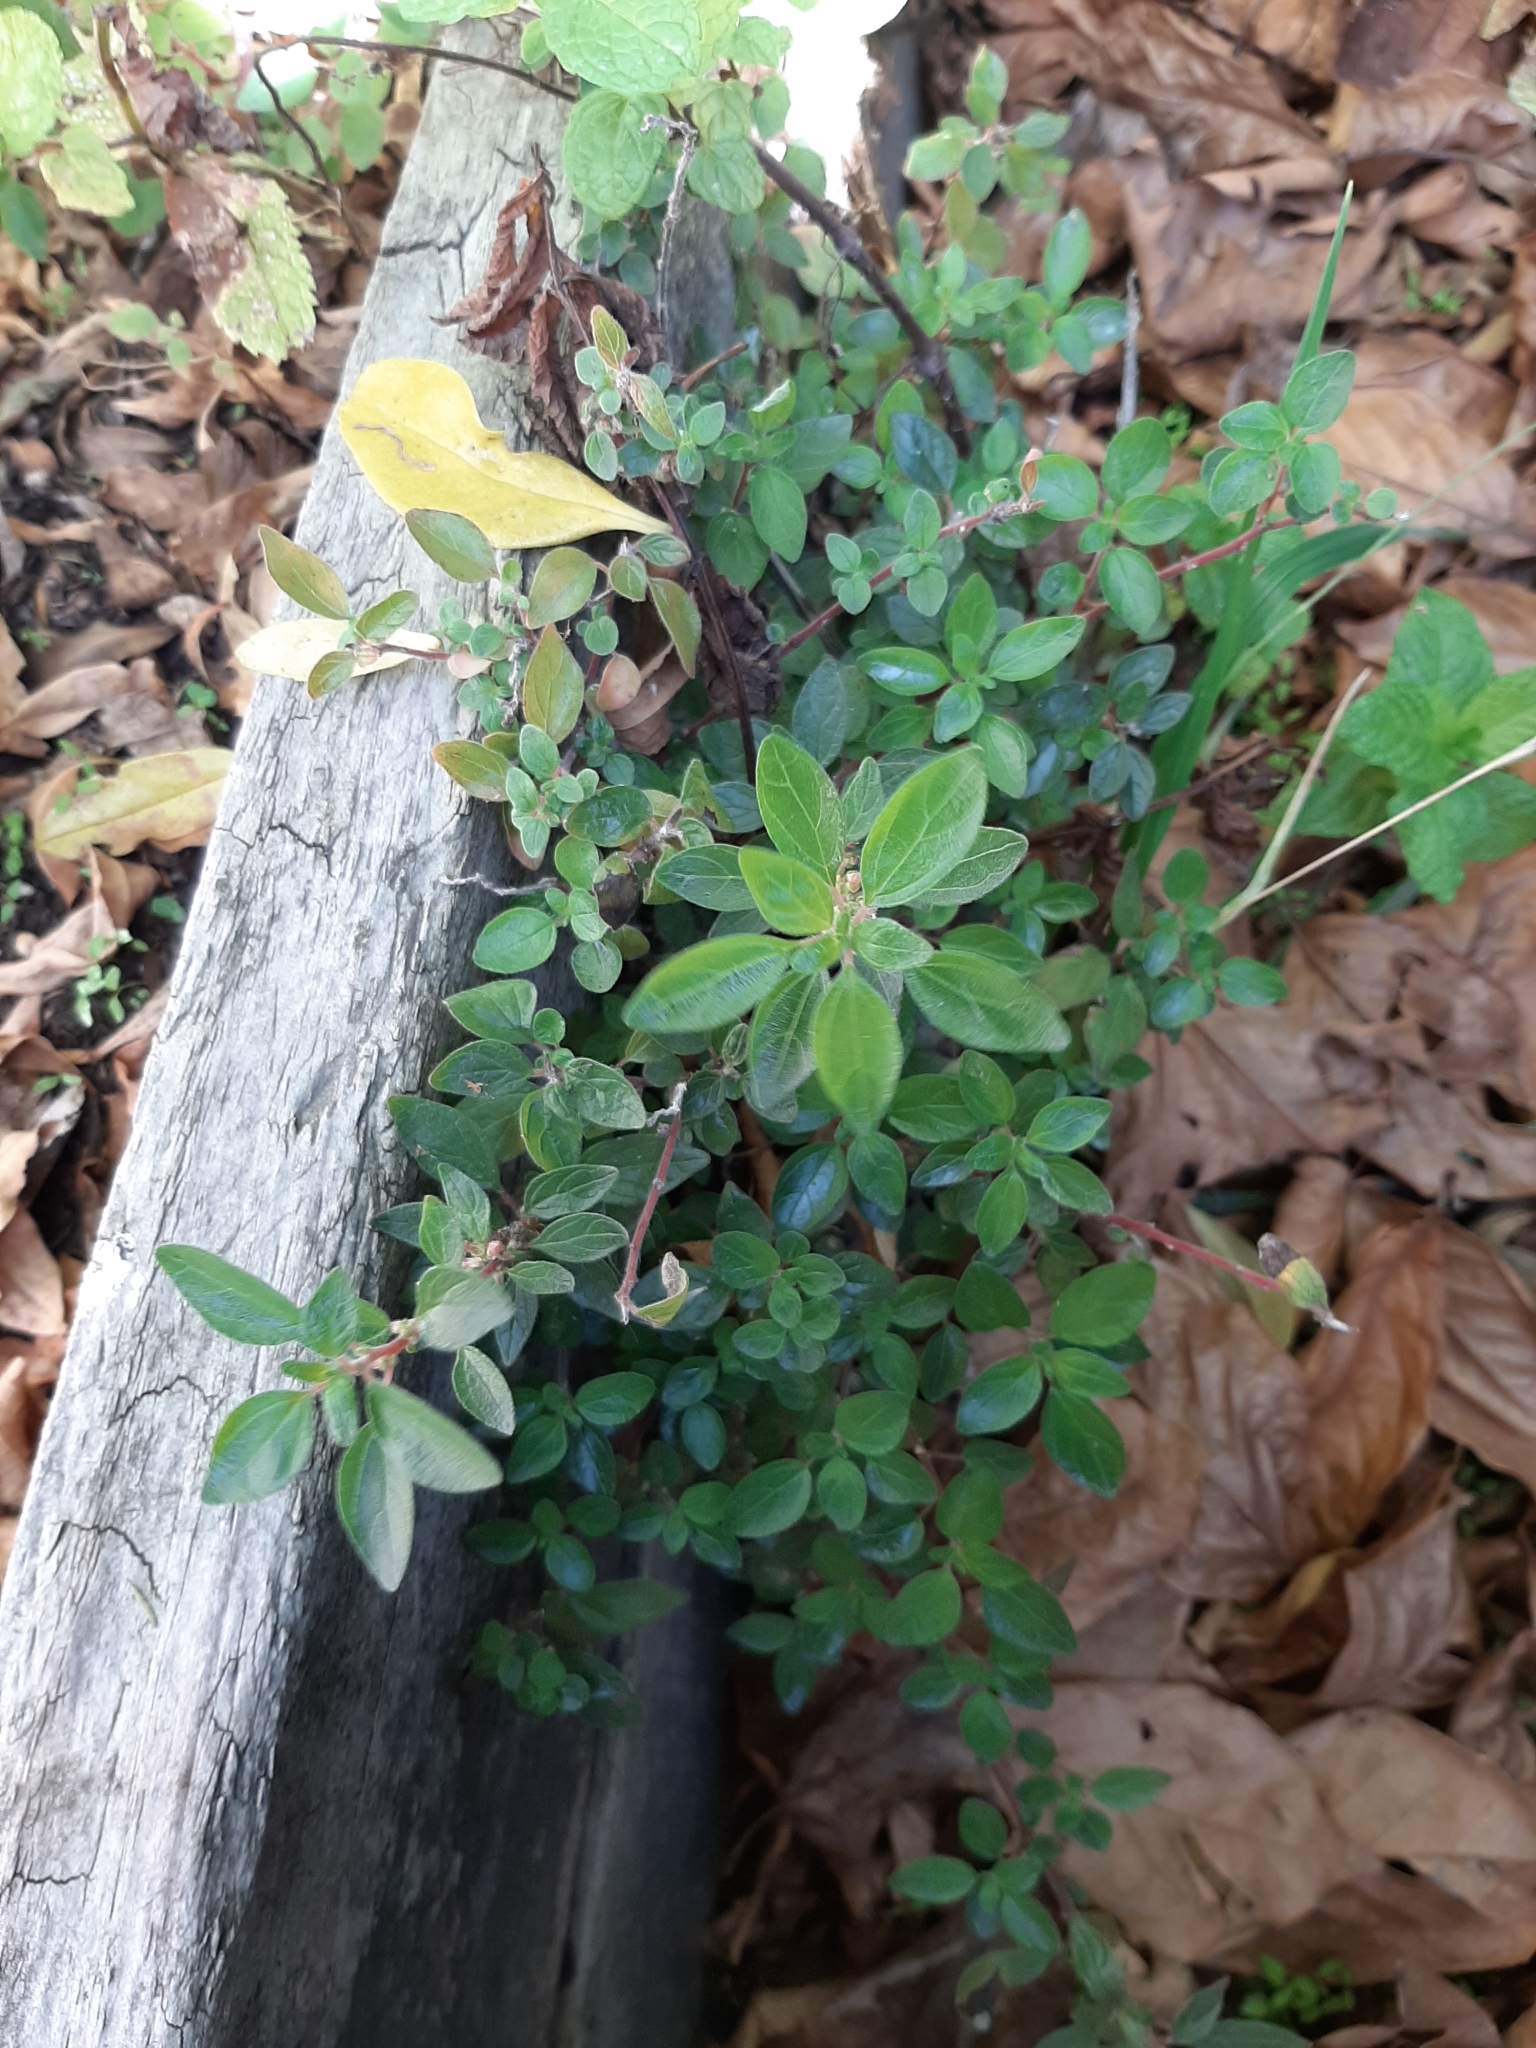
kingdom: Plantae
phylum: Tracheophyta
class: Magnoliopsida
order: Rosales
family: Urticaceae
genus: Parietaria
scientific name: Parietaria judaica
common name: Pellitory-of-the-wall
